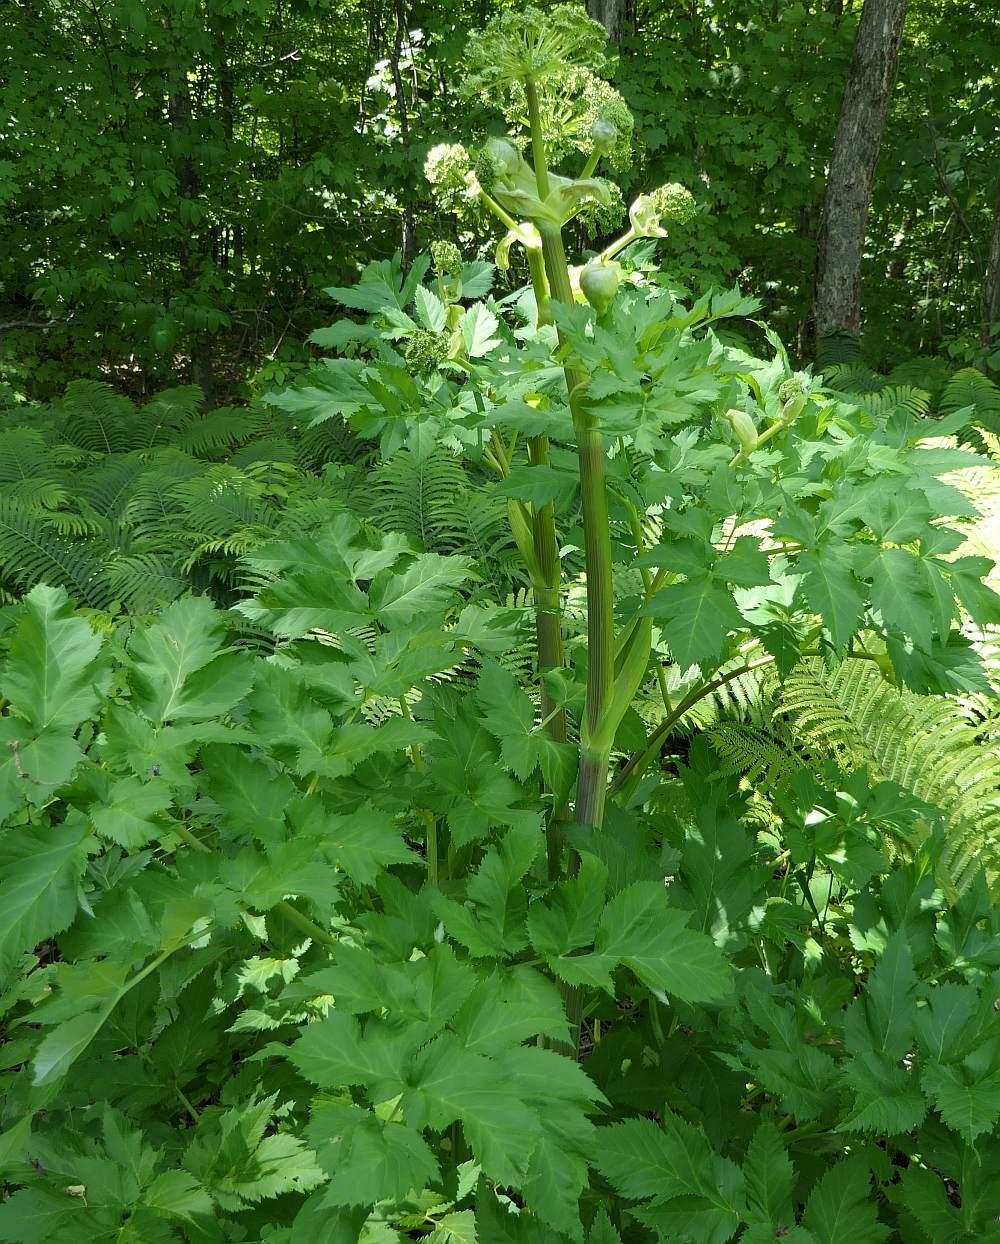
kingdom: Plantae
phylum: Tracheophyta
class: Magnoliopsida
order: Apiales
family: Apiaceae
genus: Heracleum
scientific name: Heracleum maximum
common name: American cow parsnip
